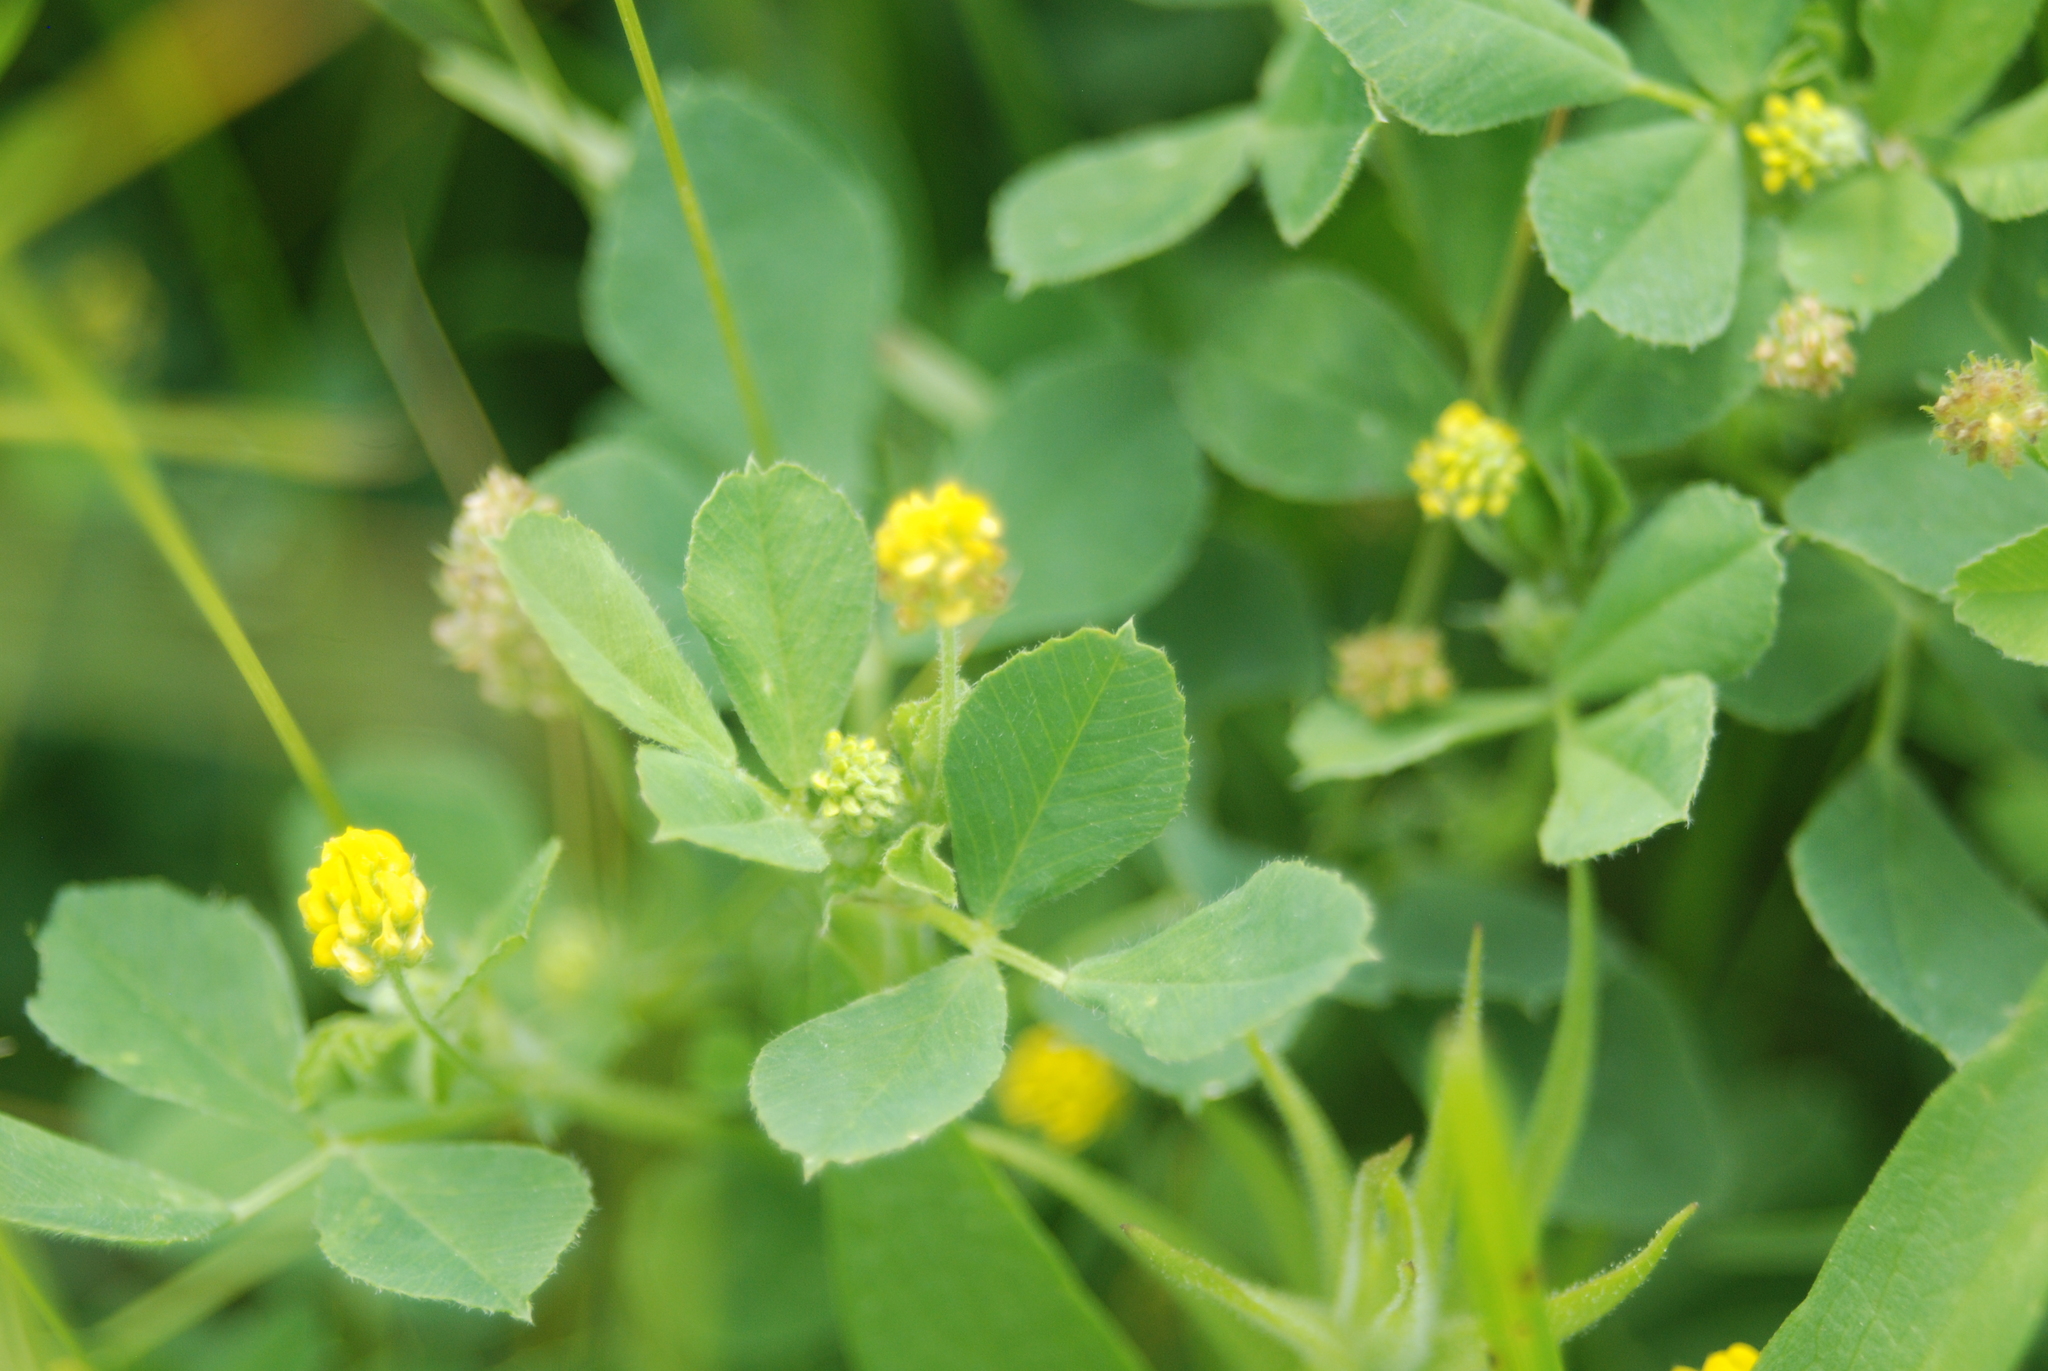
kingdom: Plantae
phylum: Tracheophyta
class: Magnoliopsida
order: Fabales
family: Fabaceae
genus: Medicago
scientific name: Medicago lupulina
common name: Black medick
